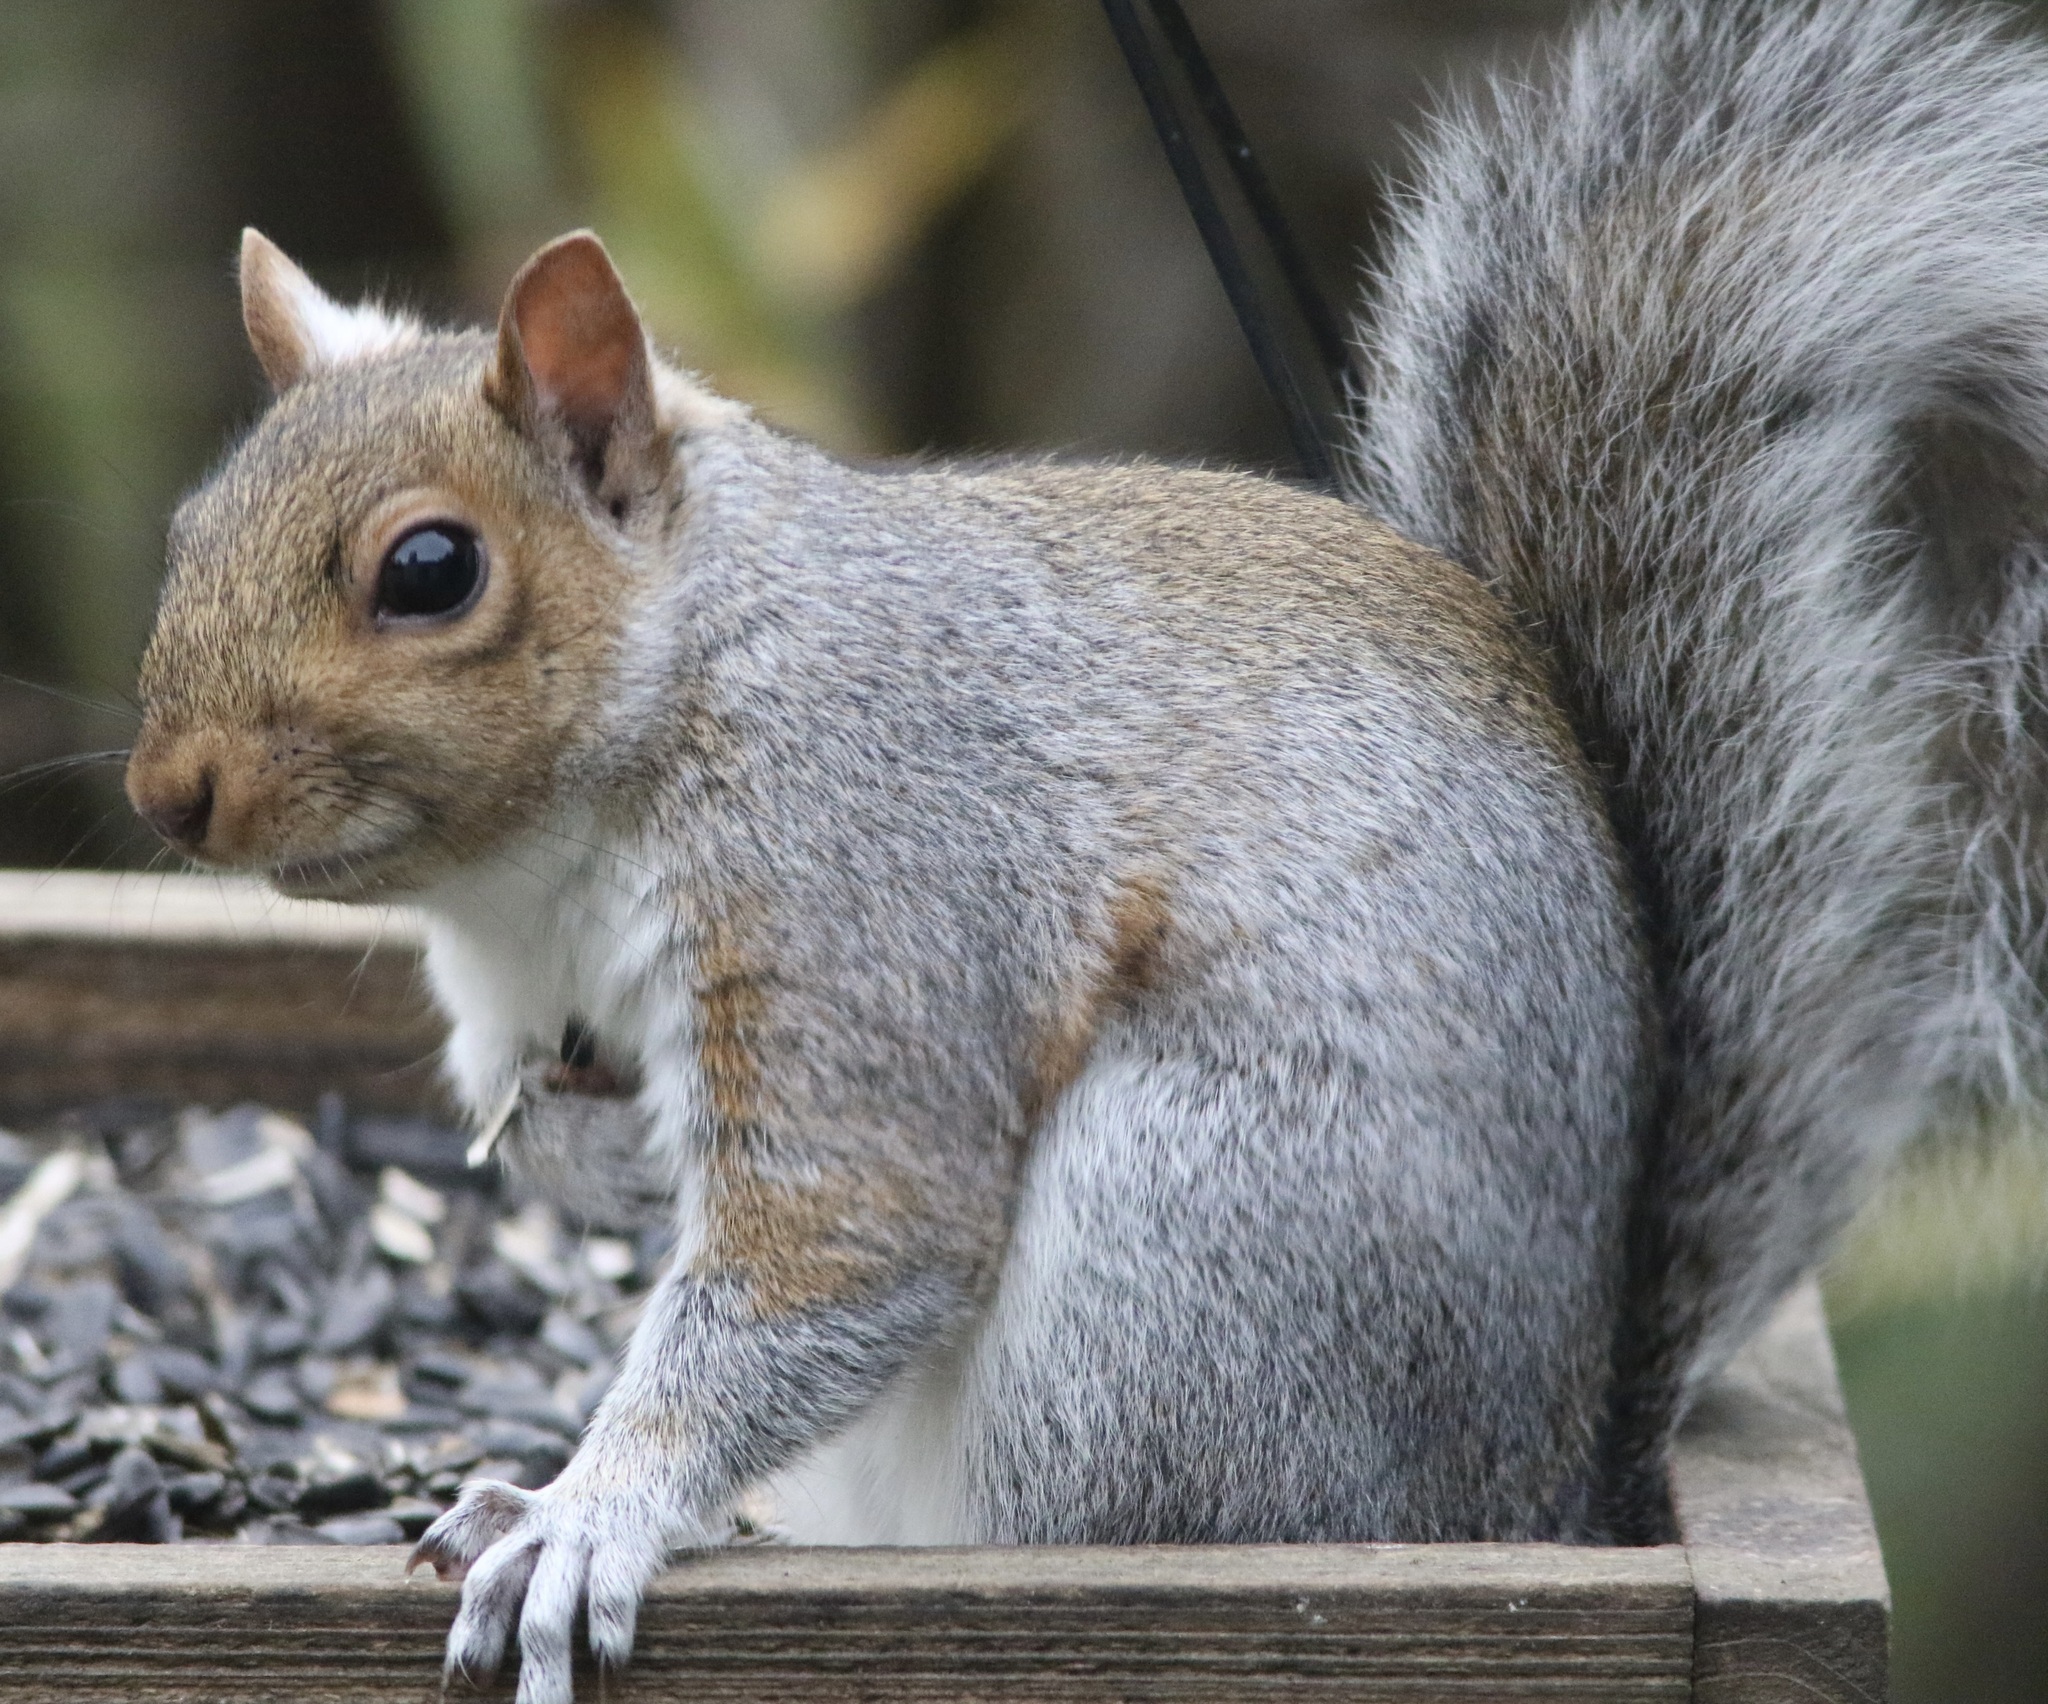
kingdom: Animalia
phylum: Chordata
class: Mammalia
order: Rodentia
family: Sciuridae
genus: Sciurus
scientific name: Sciurus carolinensis
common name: Eastern gray squirrel
